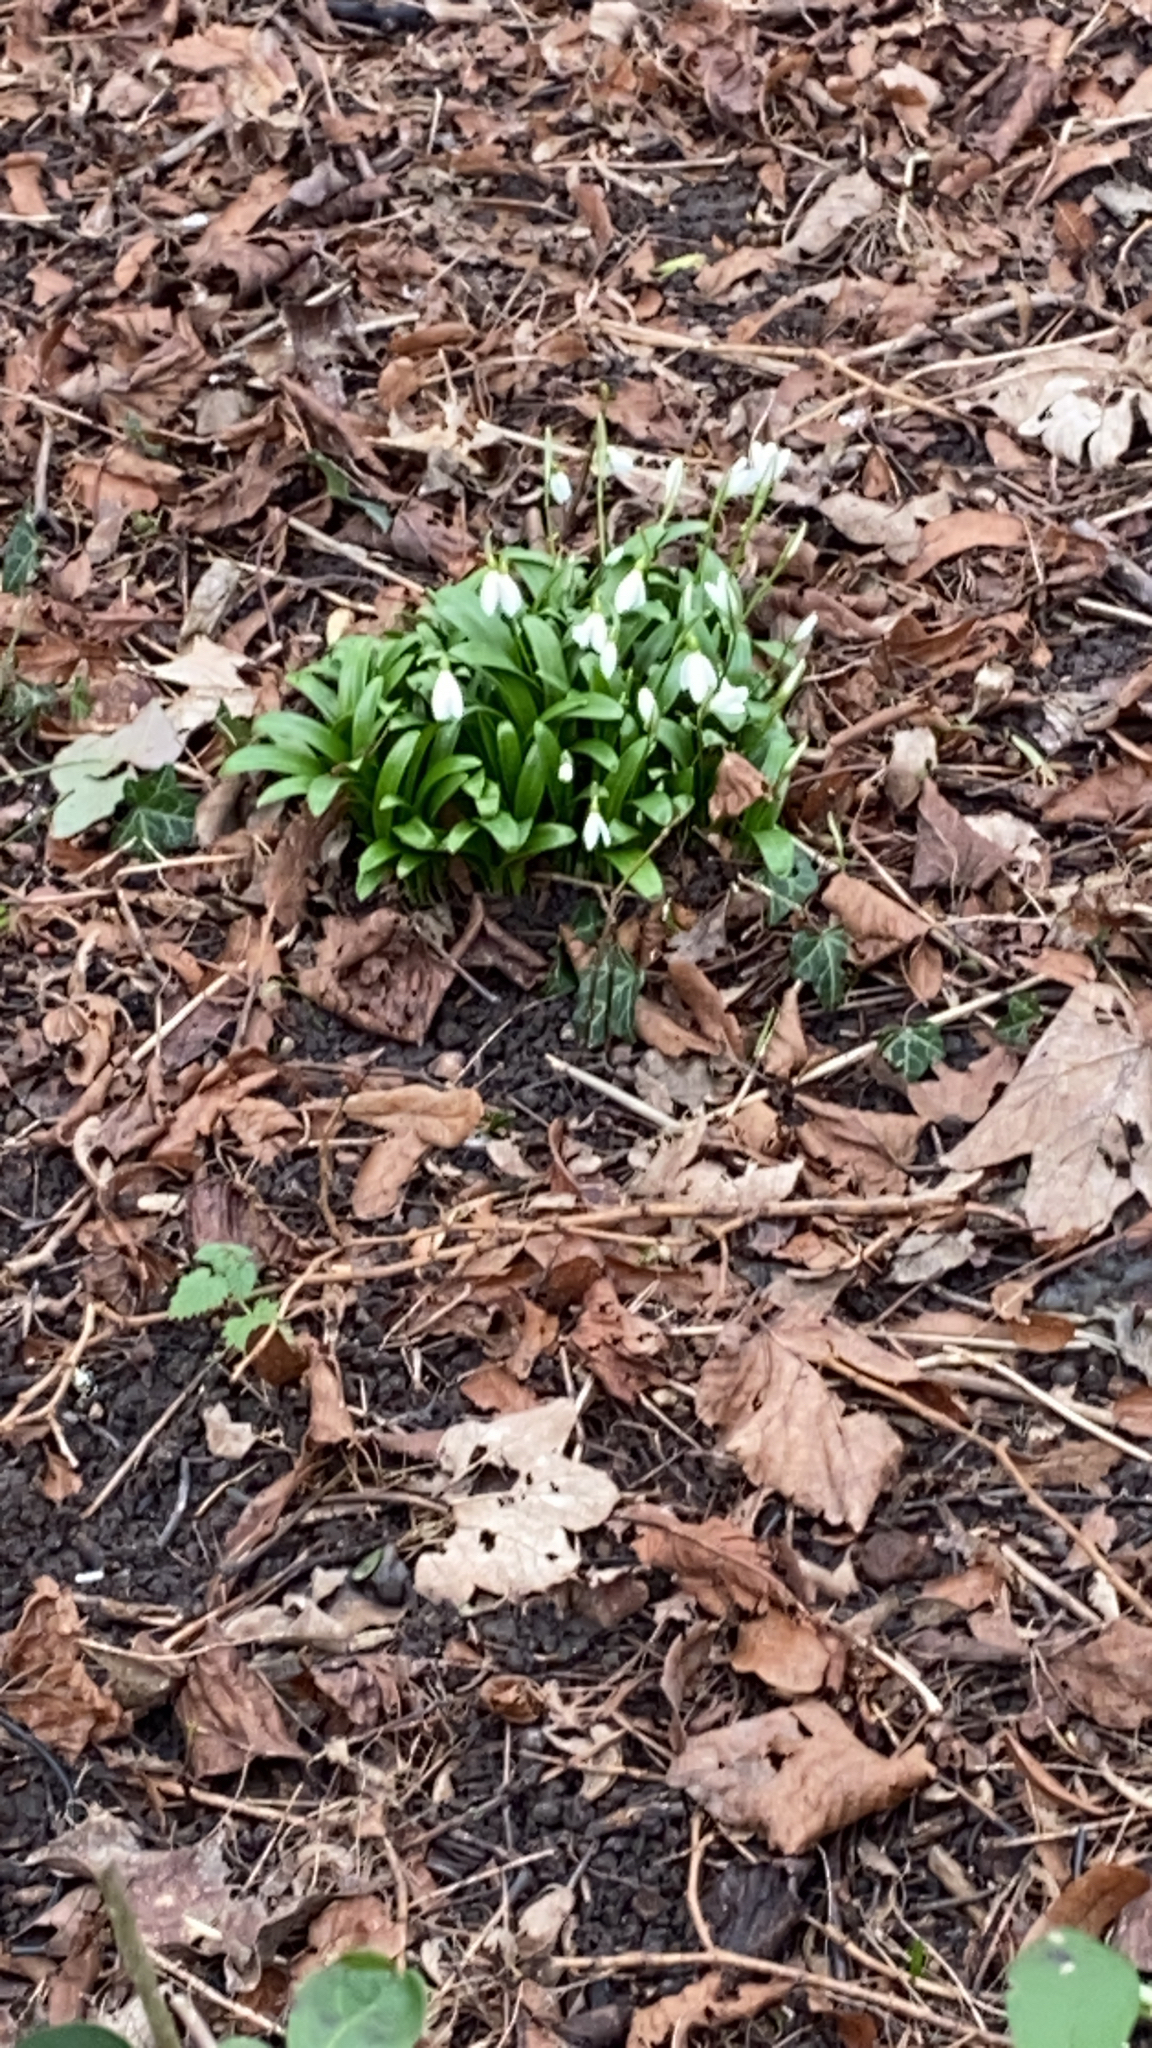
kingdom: Plantae
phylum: Tracheophyta
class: Liliopsida
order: Asparagales
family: Amaryllidaceae
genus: Galanthus
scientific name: Galanthus woronowii
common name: Green snowdrop
